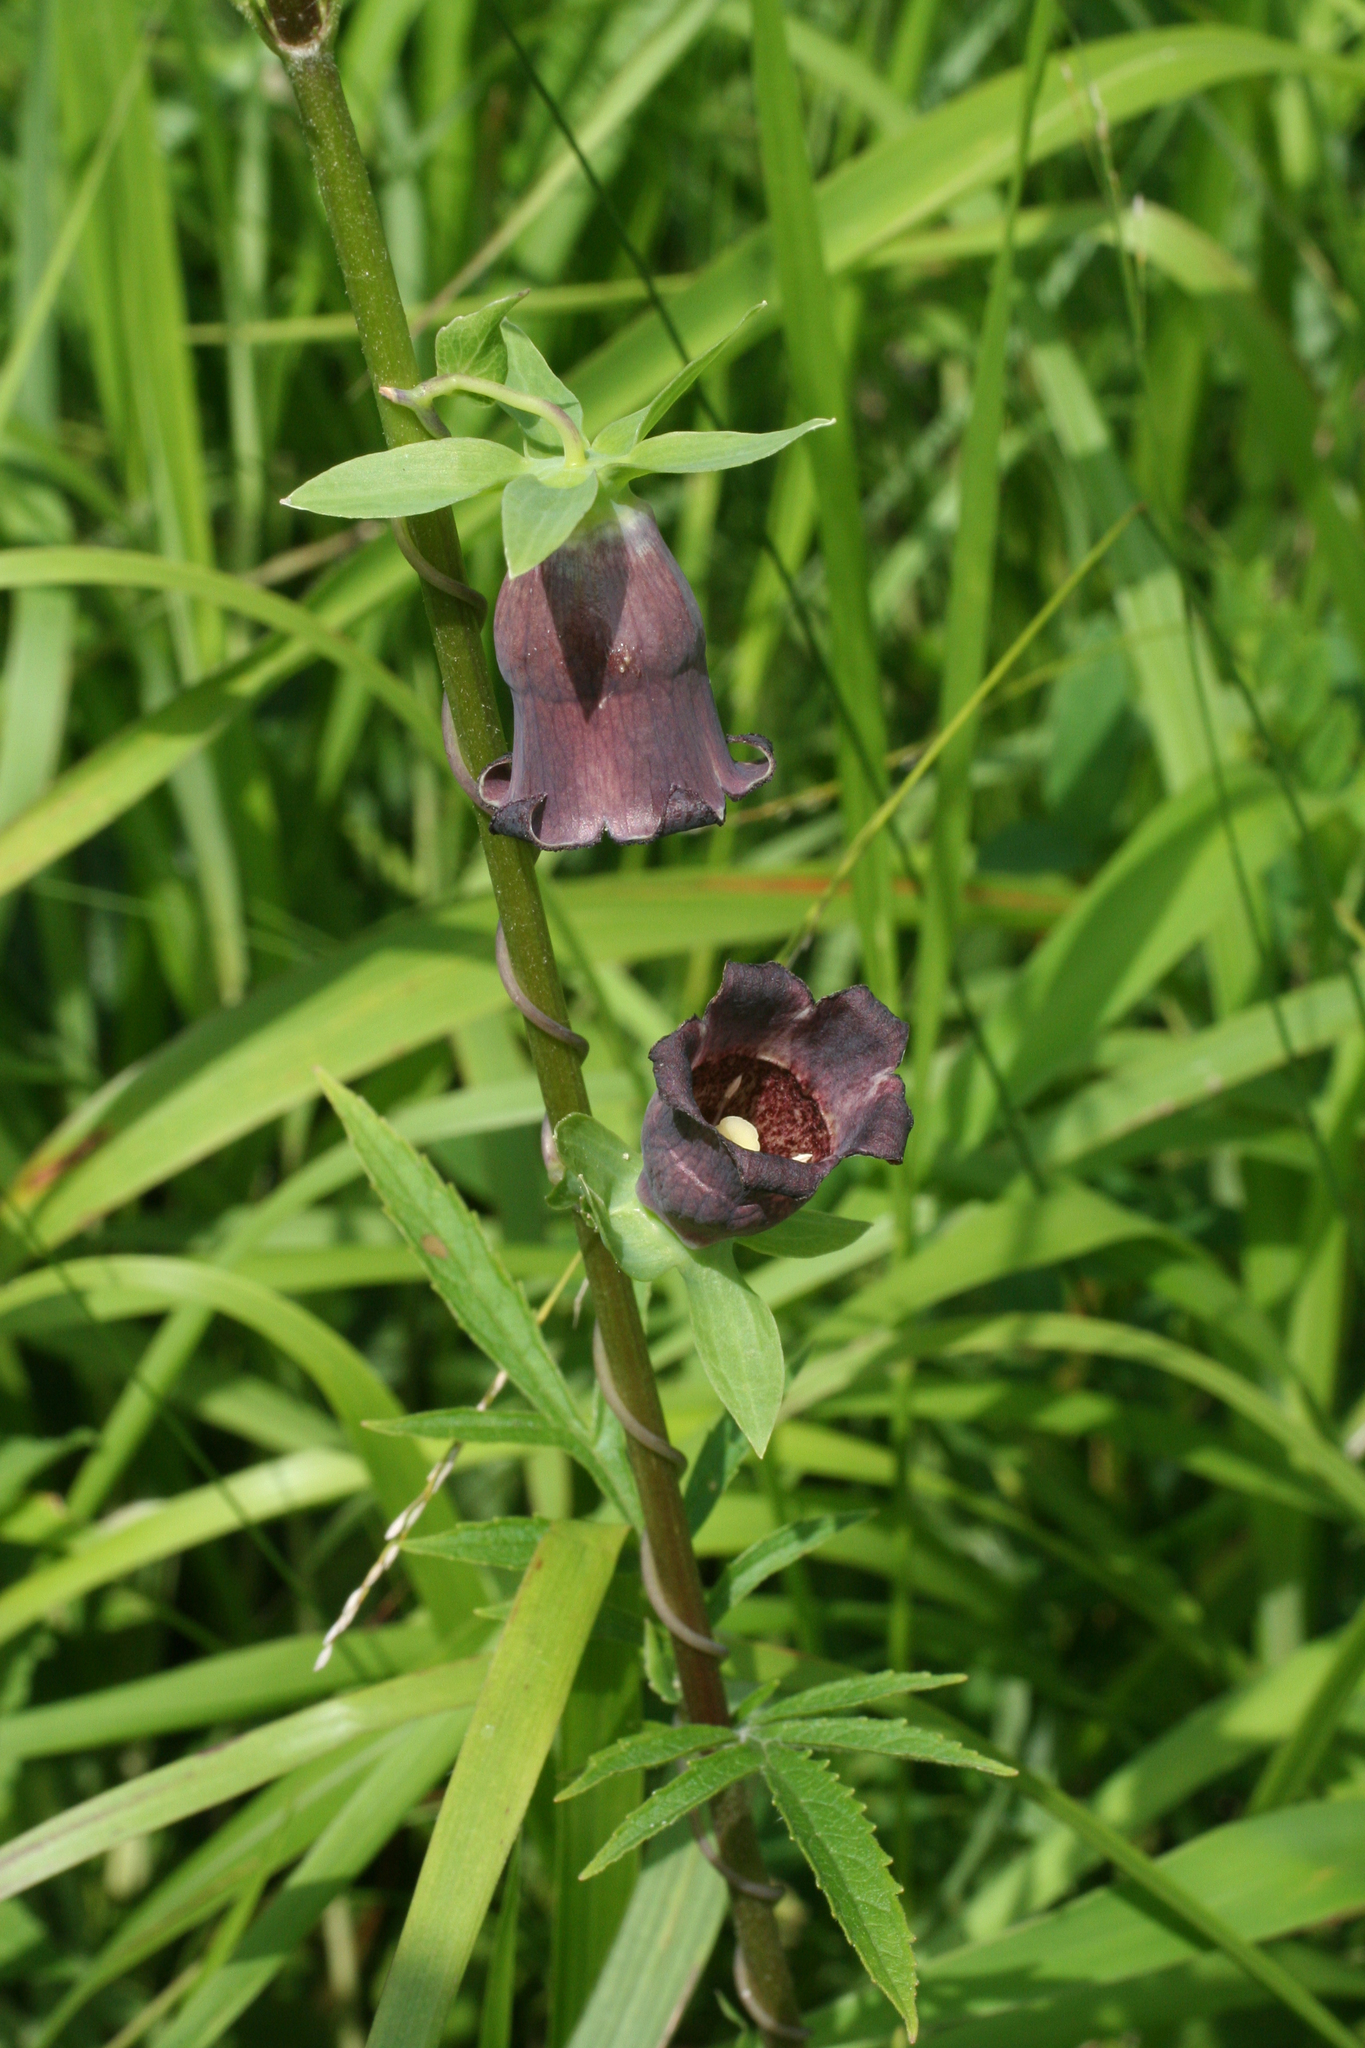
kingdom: Plantae
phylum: Tracheophyta
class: Magnoliopsida
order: Asterales
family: Campanulaceae
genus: Codonopsis
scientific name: Codonopsis ussuriensis
